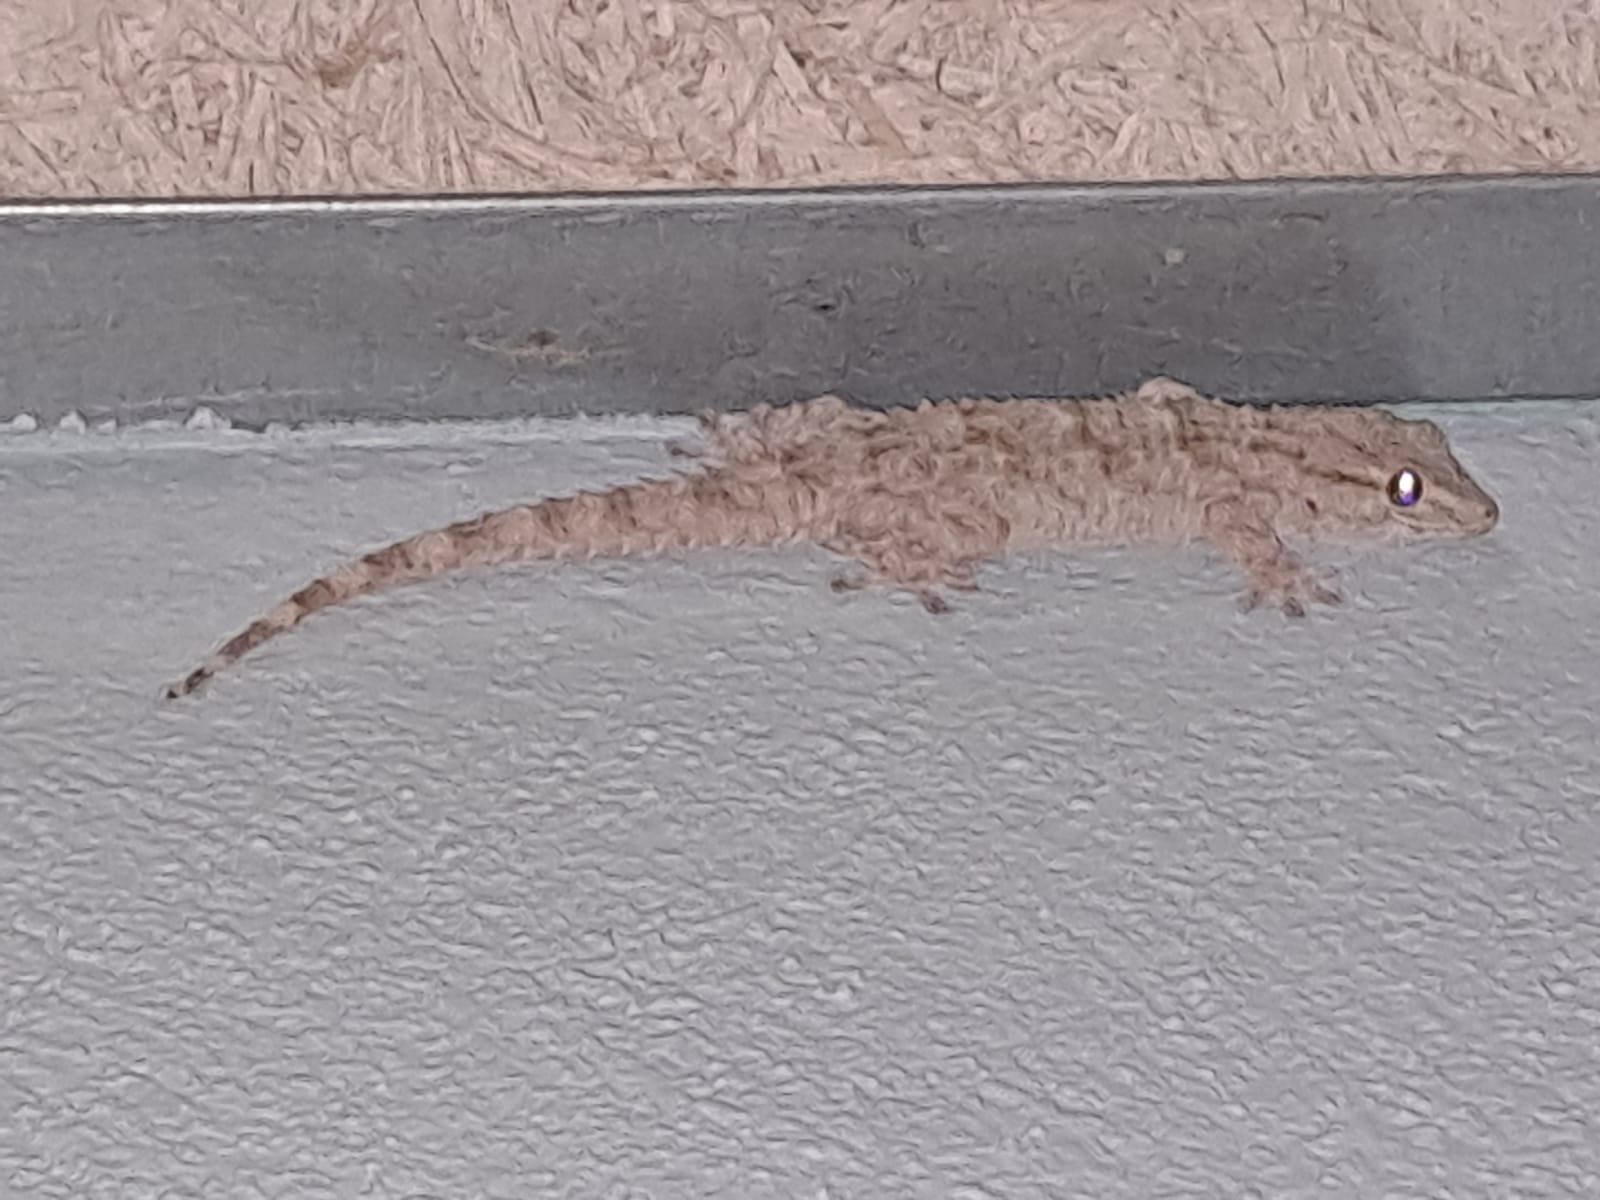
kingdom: Animalia
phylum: Chordata
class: Squamata
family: Phyllodactylidae
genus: Tarentola
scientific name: Tarentola mauritanica
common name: Moorish gecko
